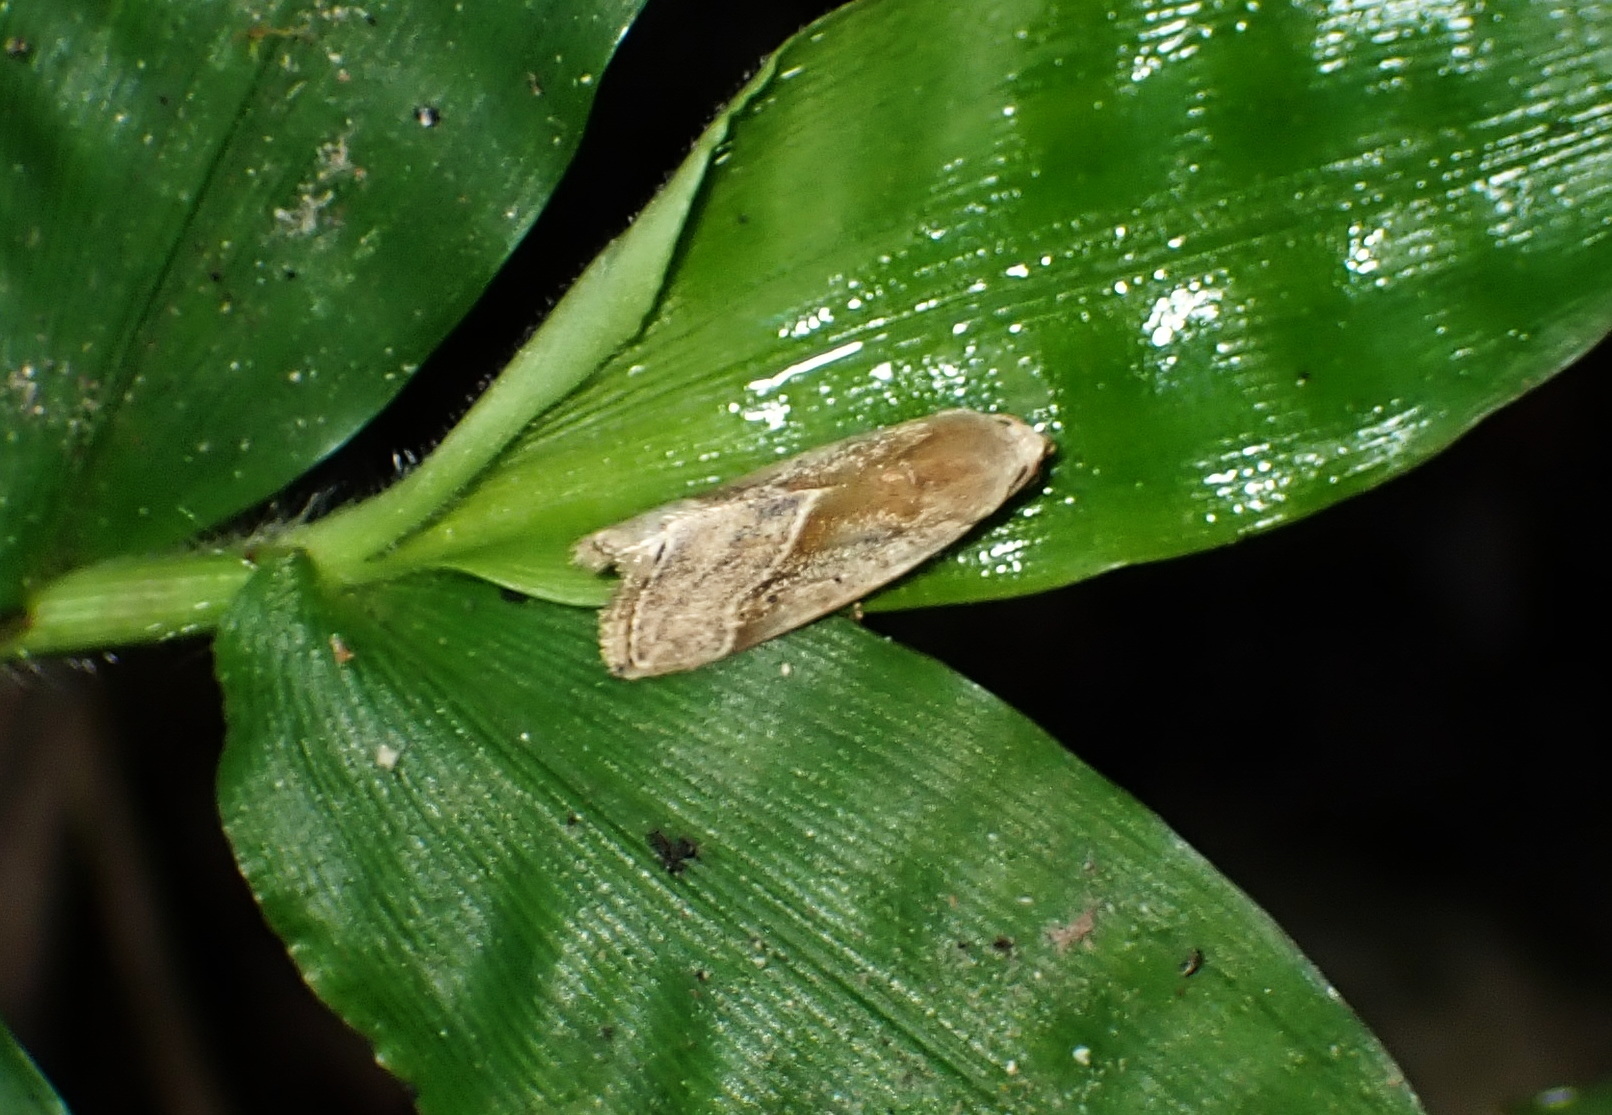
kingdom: Animalia
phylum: Arthropoda
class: Insecta
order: Lepidoptera
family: Noctuidae
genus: Micrathetis
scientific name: Micrathetis dasarada
